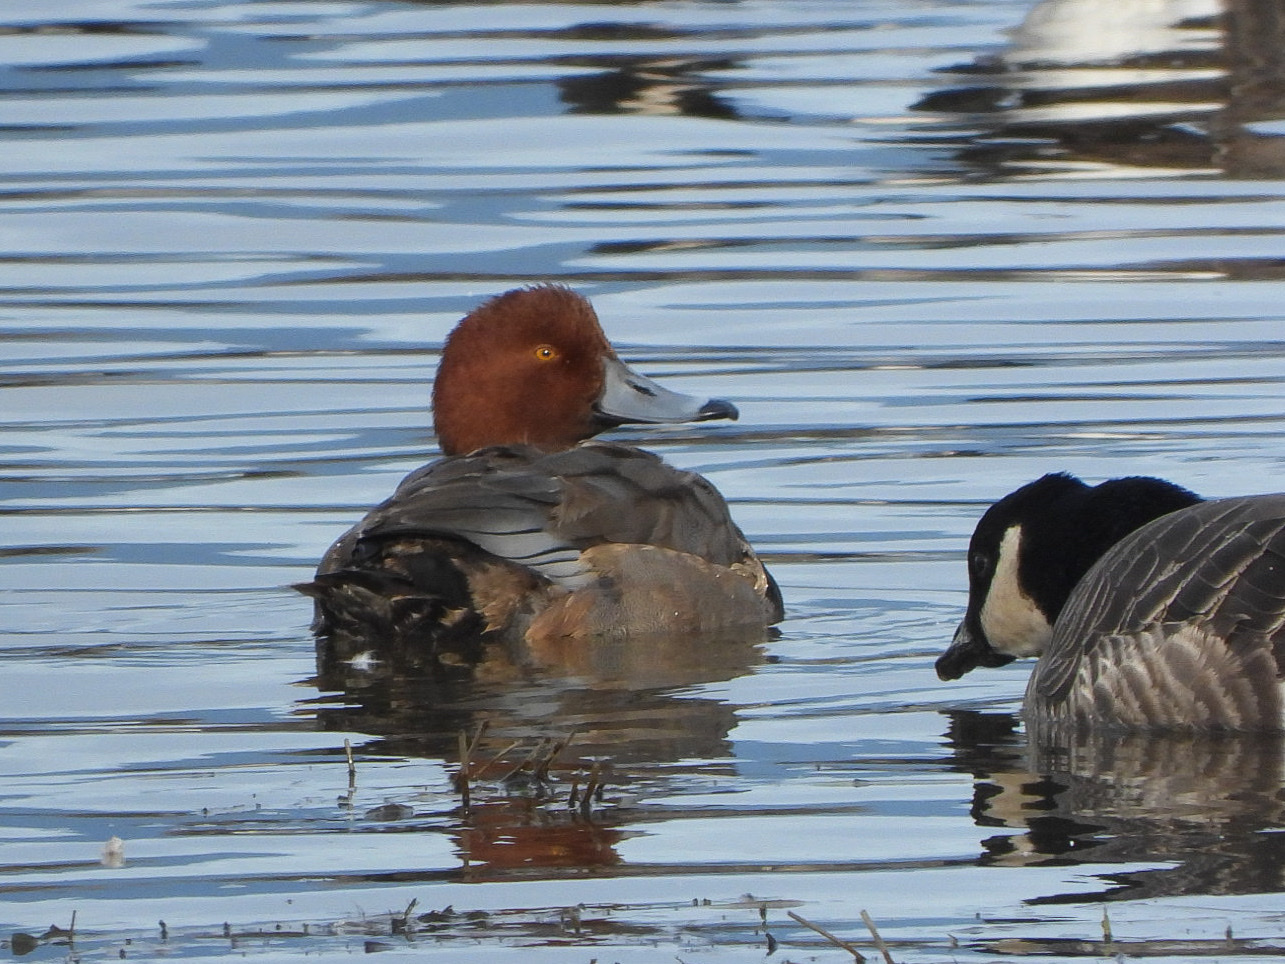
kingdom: Animalia
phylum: Chordata
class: Aves
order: Anseriformes
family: Anatidae
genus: Aythya
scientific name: Aythya americana
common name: Redhead
